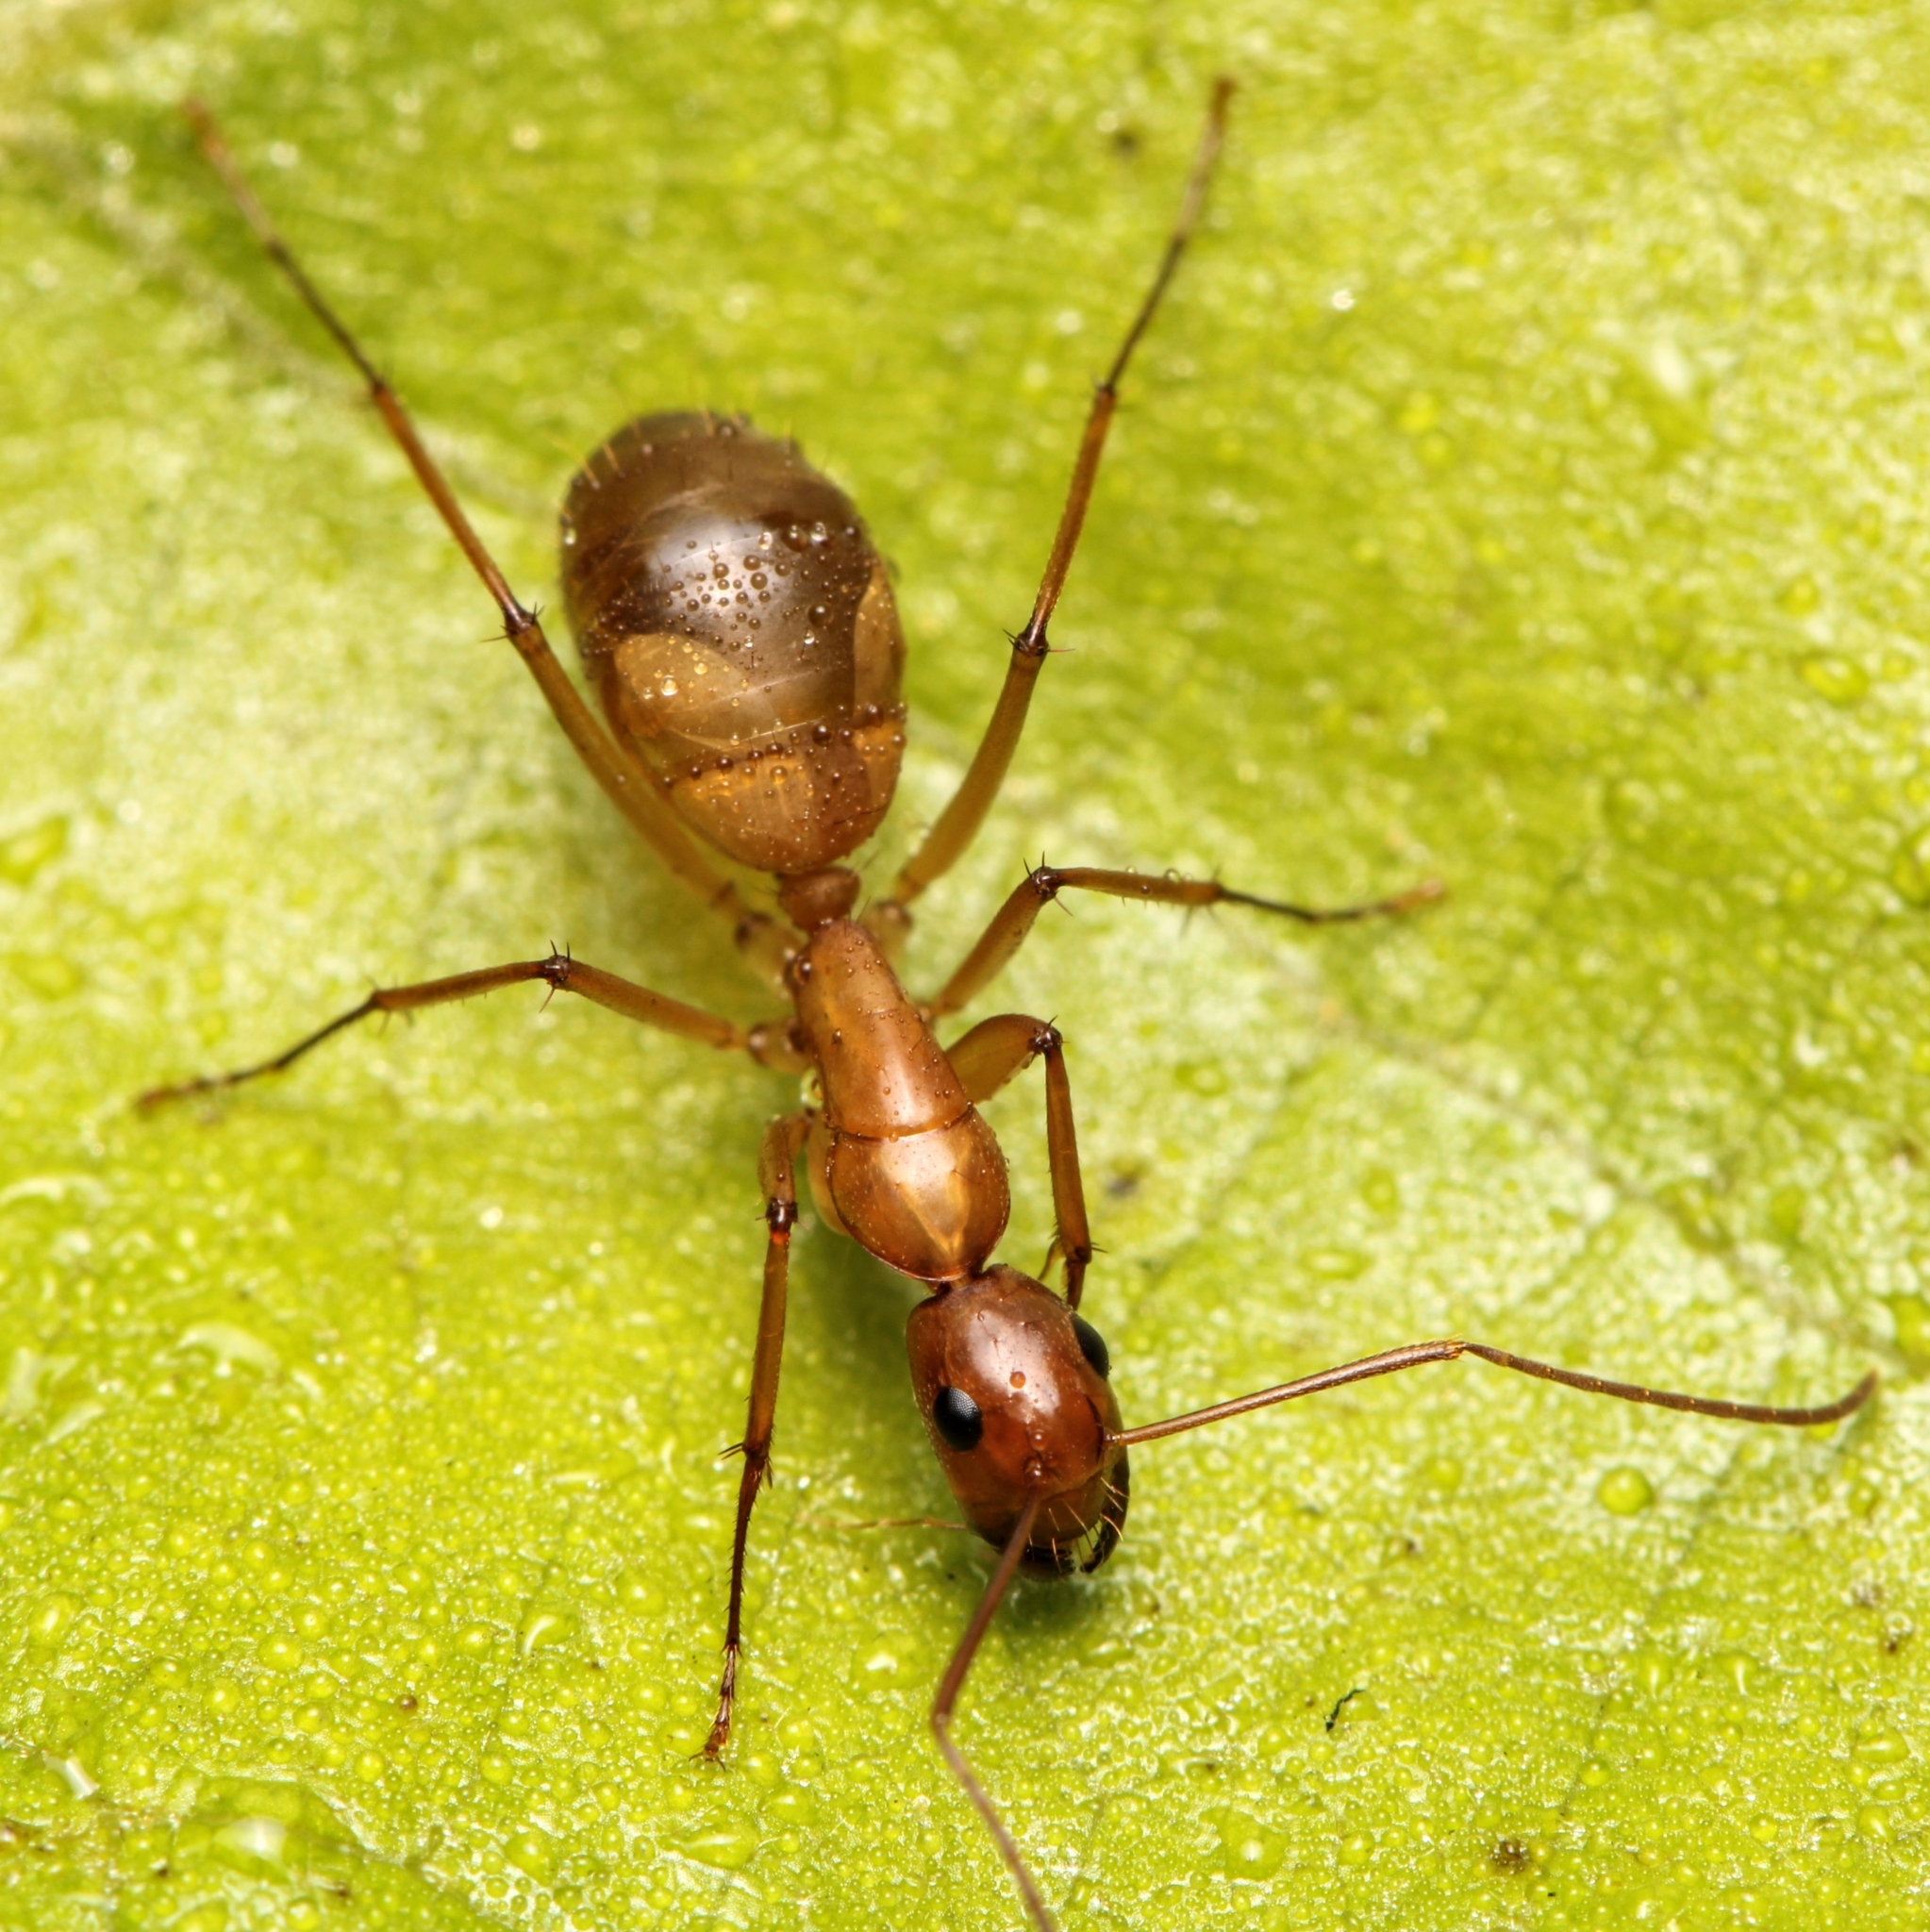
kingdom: Animalia
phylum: Arthropoda
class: Insecta
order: Hymenoptera
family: Formicidae
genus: Camponotus
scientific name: Camponotus castaneus
